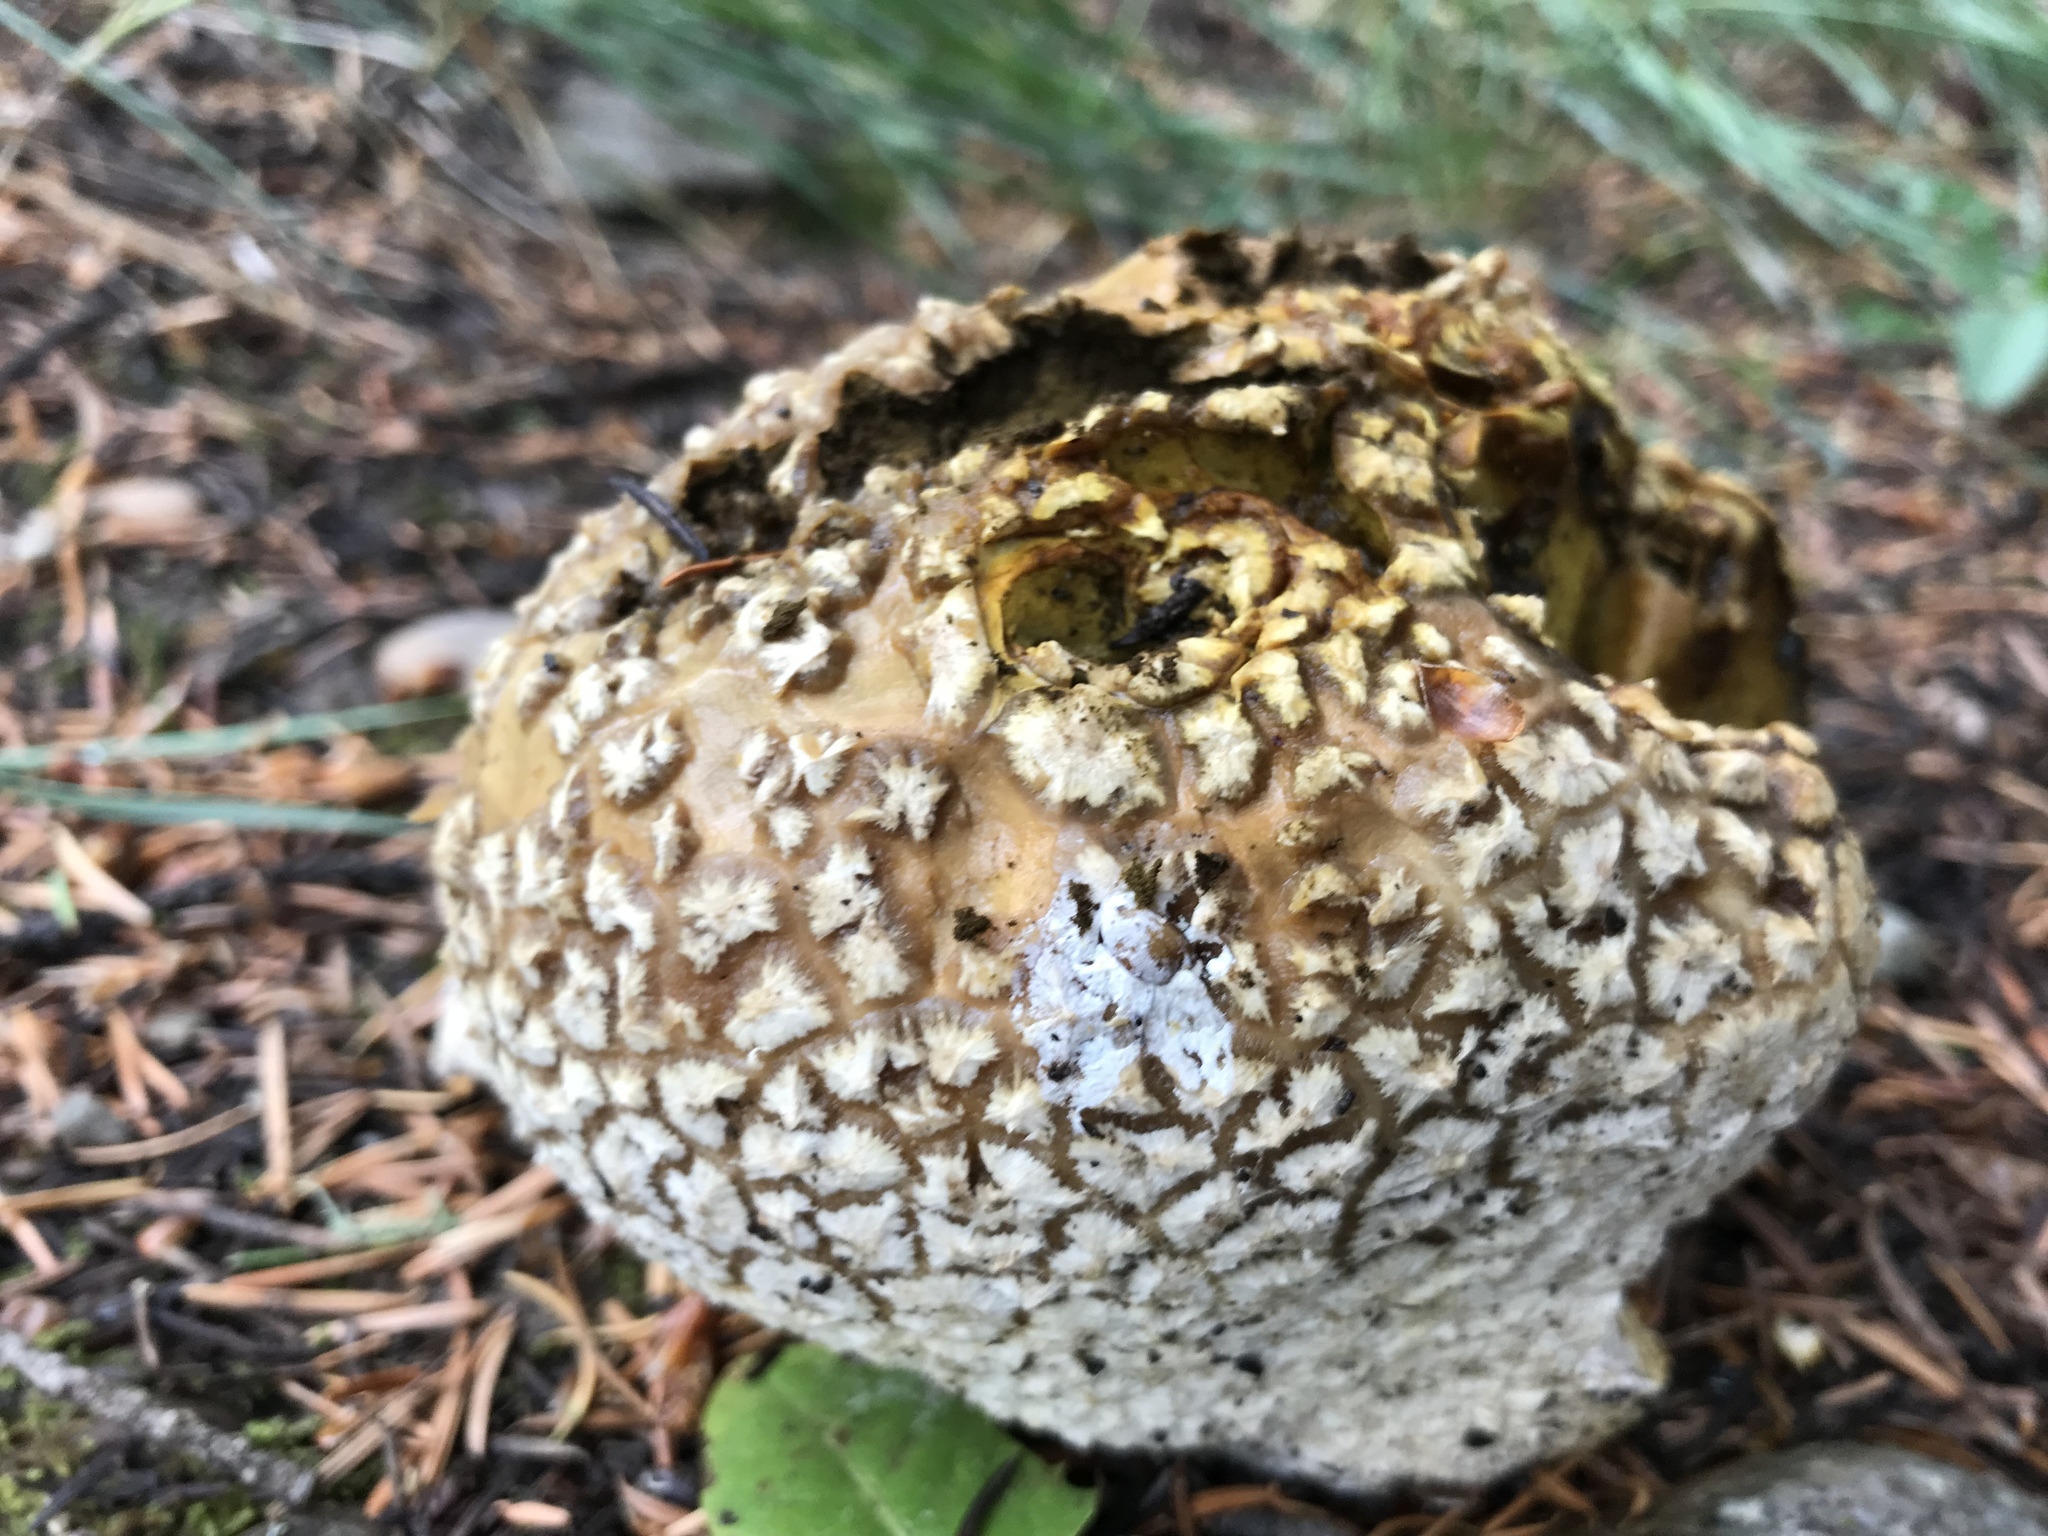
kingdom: Fungi
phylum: Basidiomycota
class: Agaricomycetes
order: Agaricales
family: Lycoperdaceae
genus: Calvatia
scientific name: Calvatia booniana
